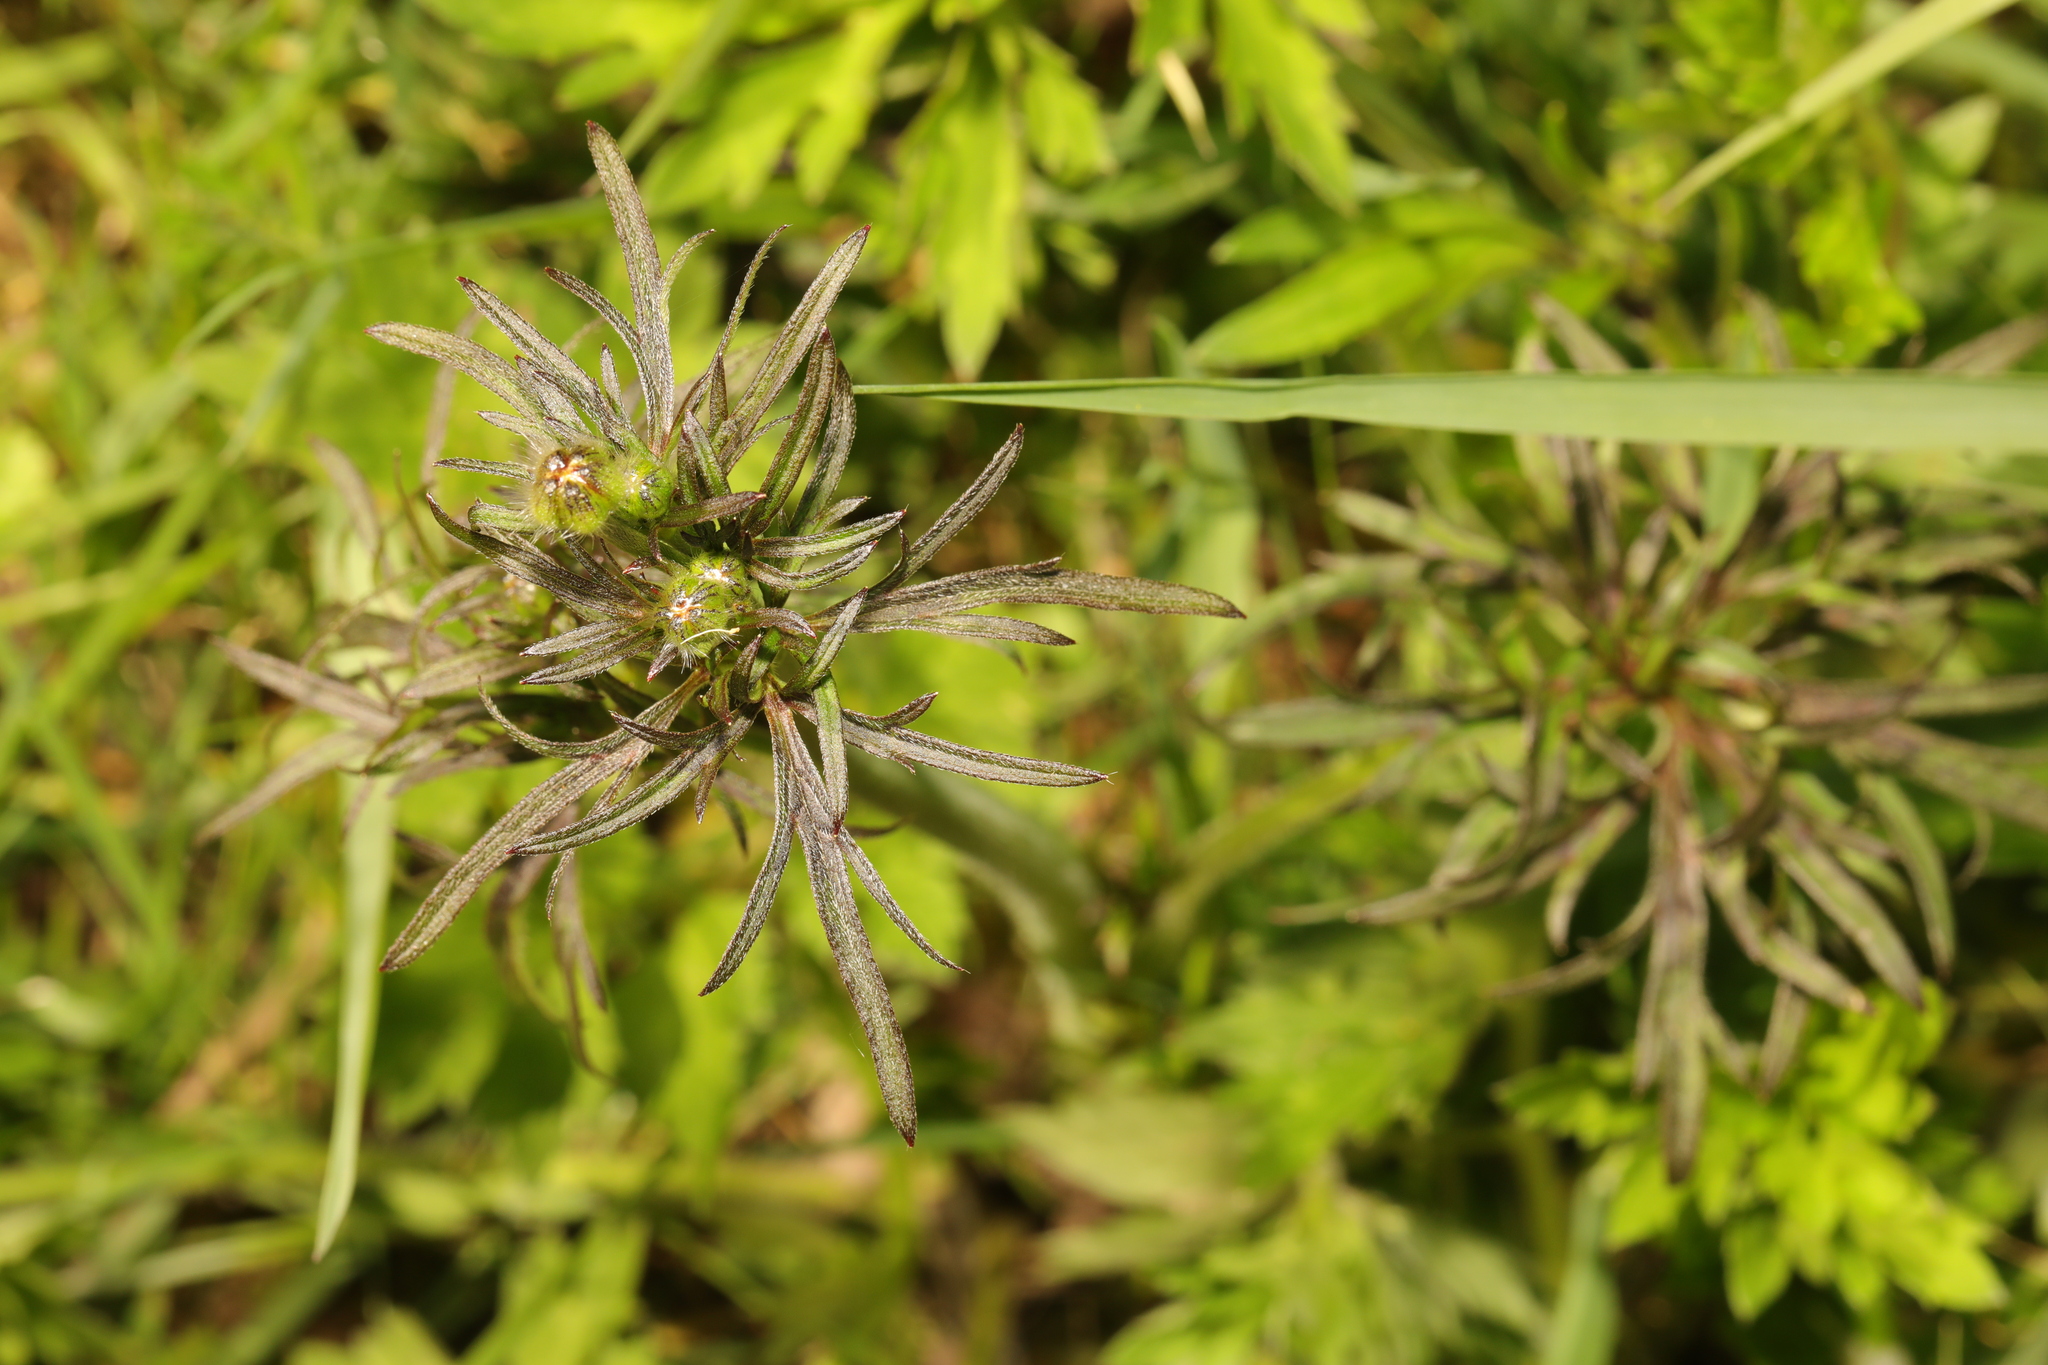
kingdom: Plantae
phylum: Tracheophyta
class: Magnoliopsida
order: Ranunculales
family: Ranunculaceae
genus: Ranunculus
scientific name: Ranunculus acris
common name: Meadow buttercup
